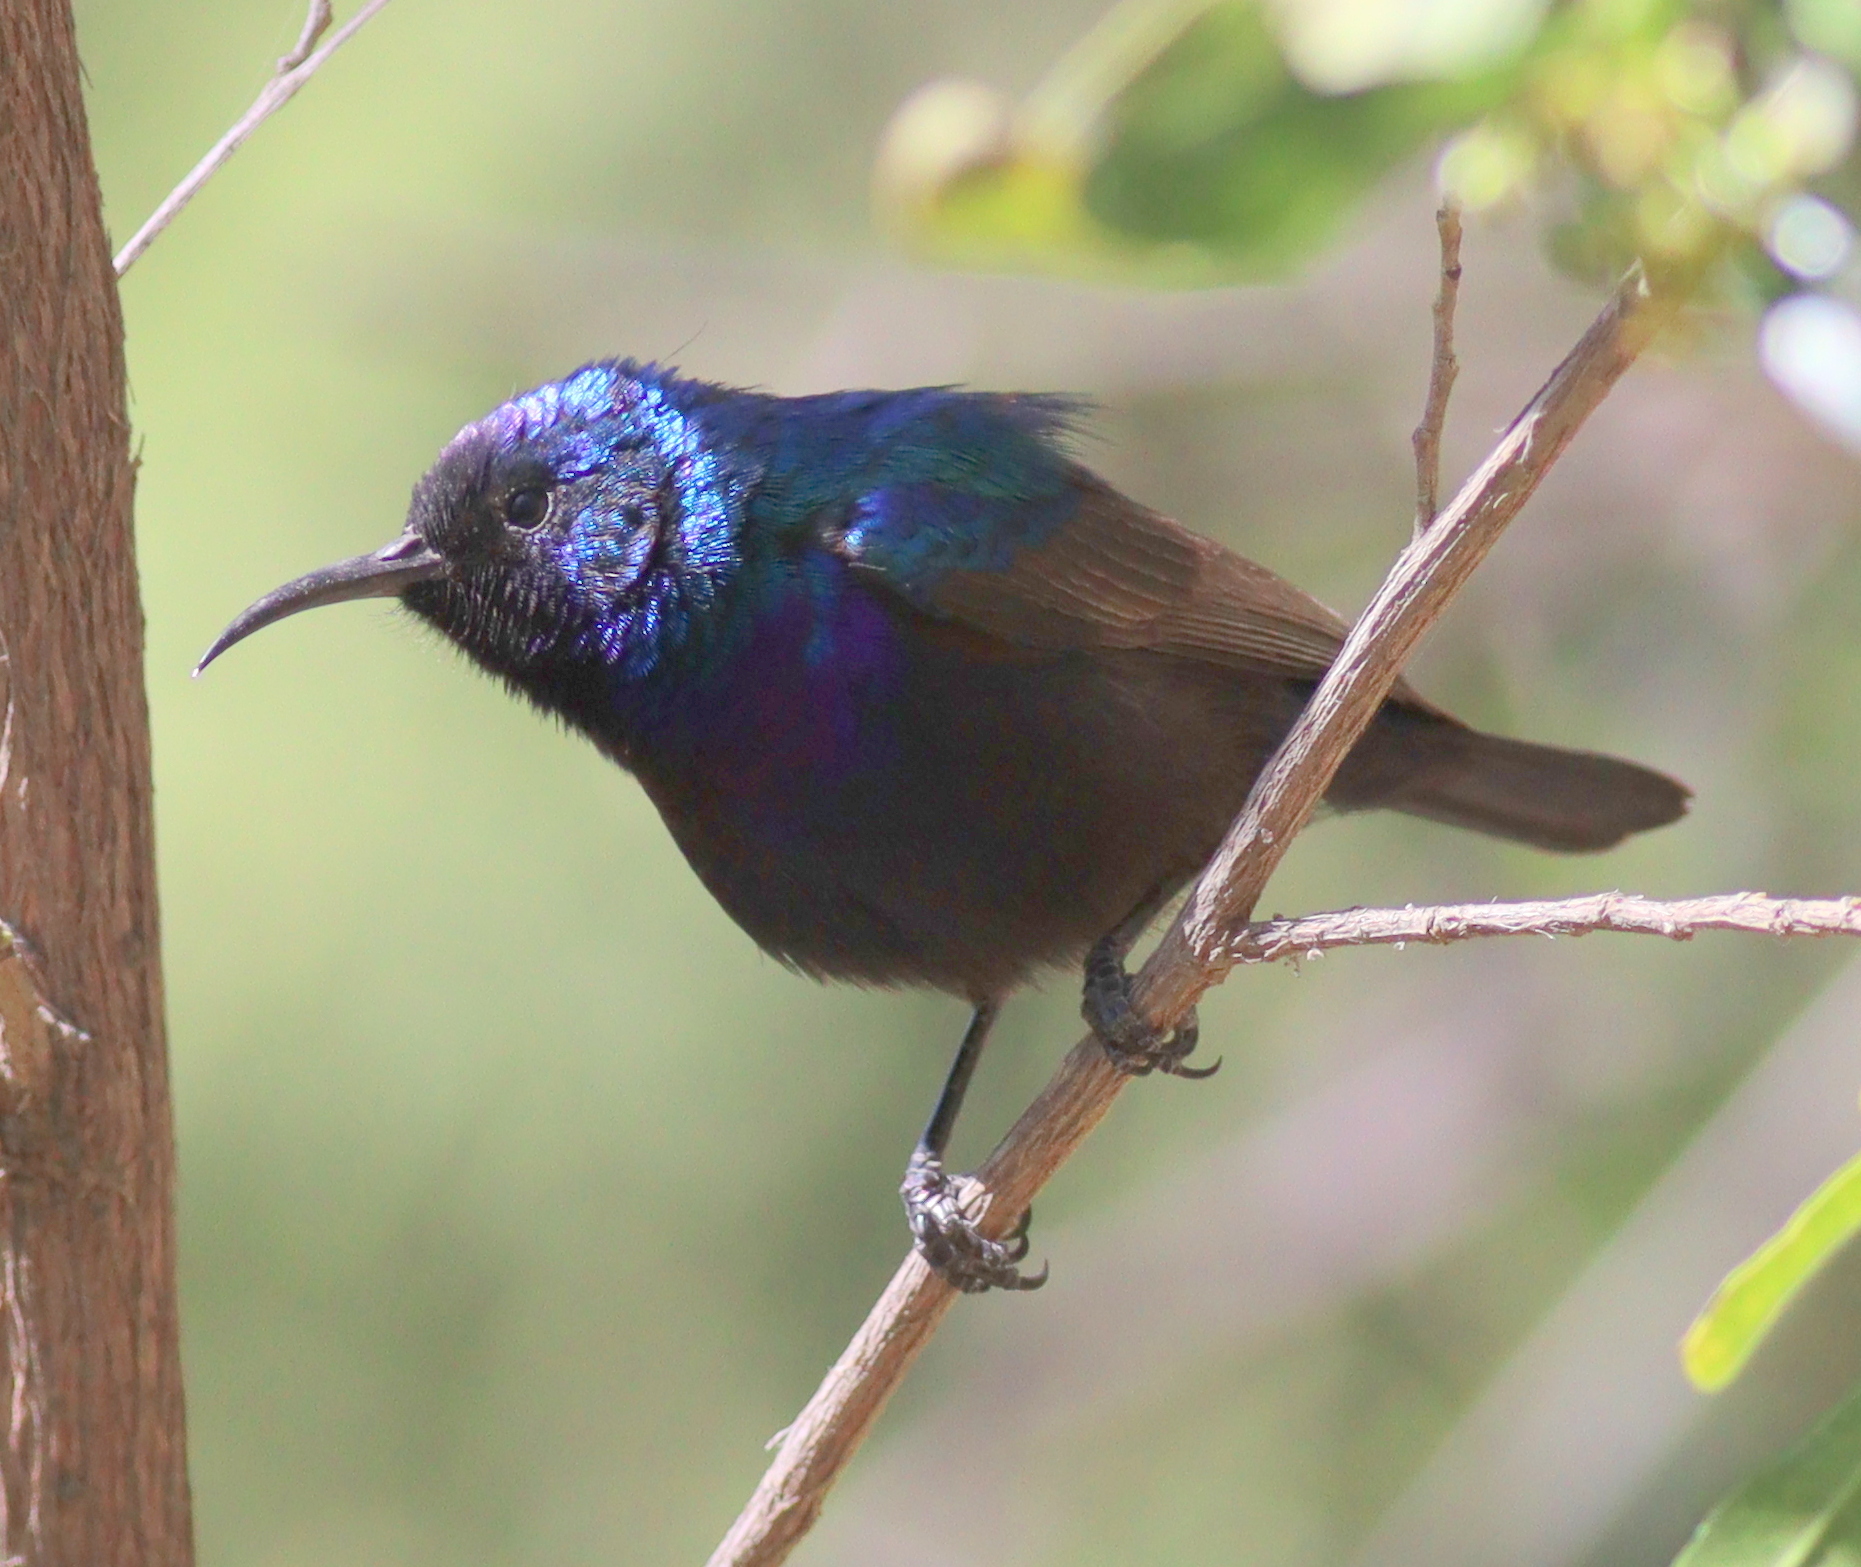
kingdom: Animalia
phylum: Chordata
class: Aves
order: Passeriformes
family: Nectariniidae
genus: Cinnyris
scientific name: Cinnyris osea
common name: Palestine sunbird
